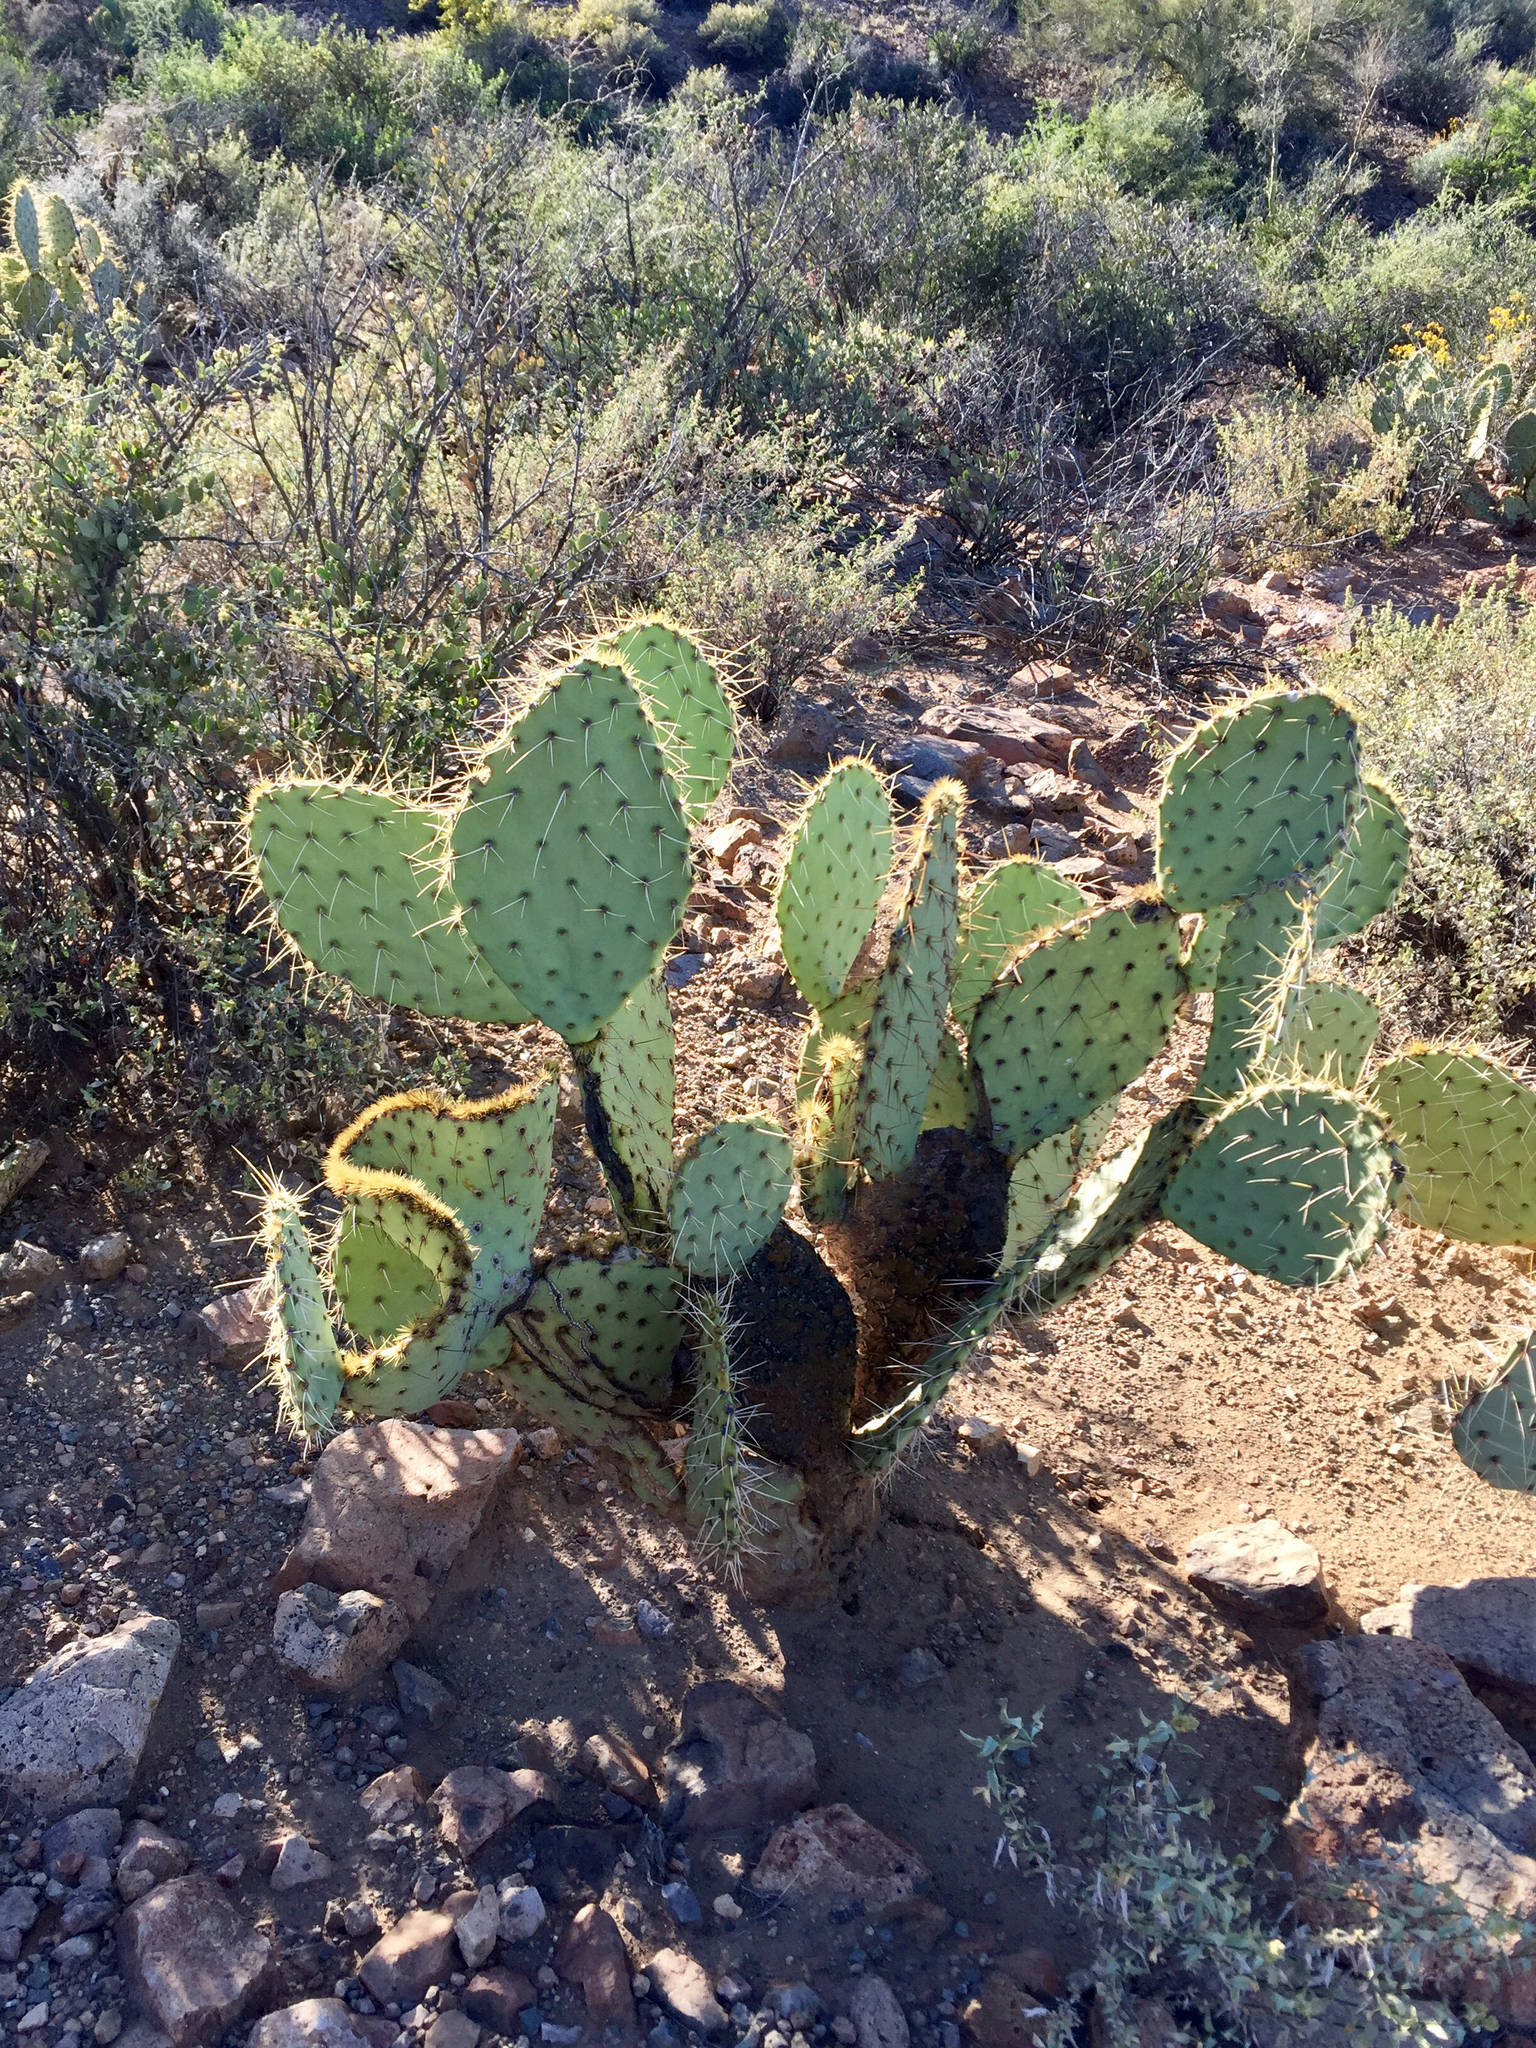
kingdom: Plantae
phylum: Tracheophyta
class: Magnoliopsida
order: Caryophyllales
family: Cactaceae
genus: Opuntia
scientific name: Opuntia engelmannii
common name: Cactus-apple
